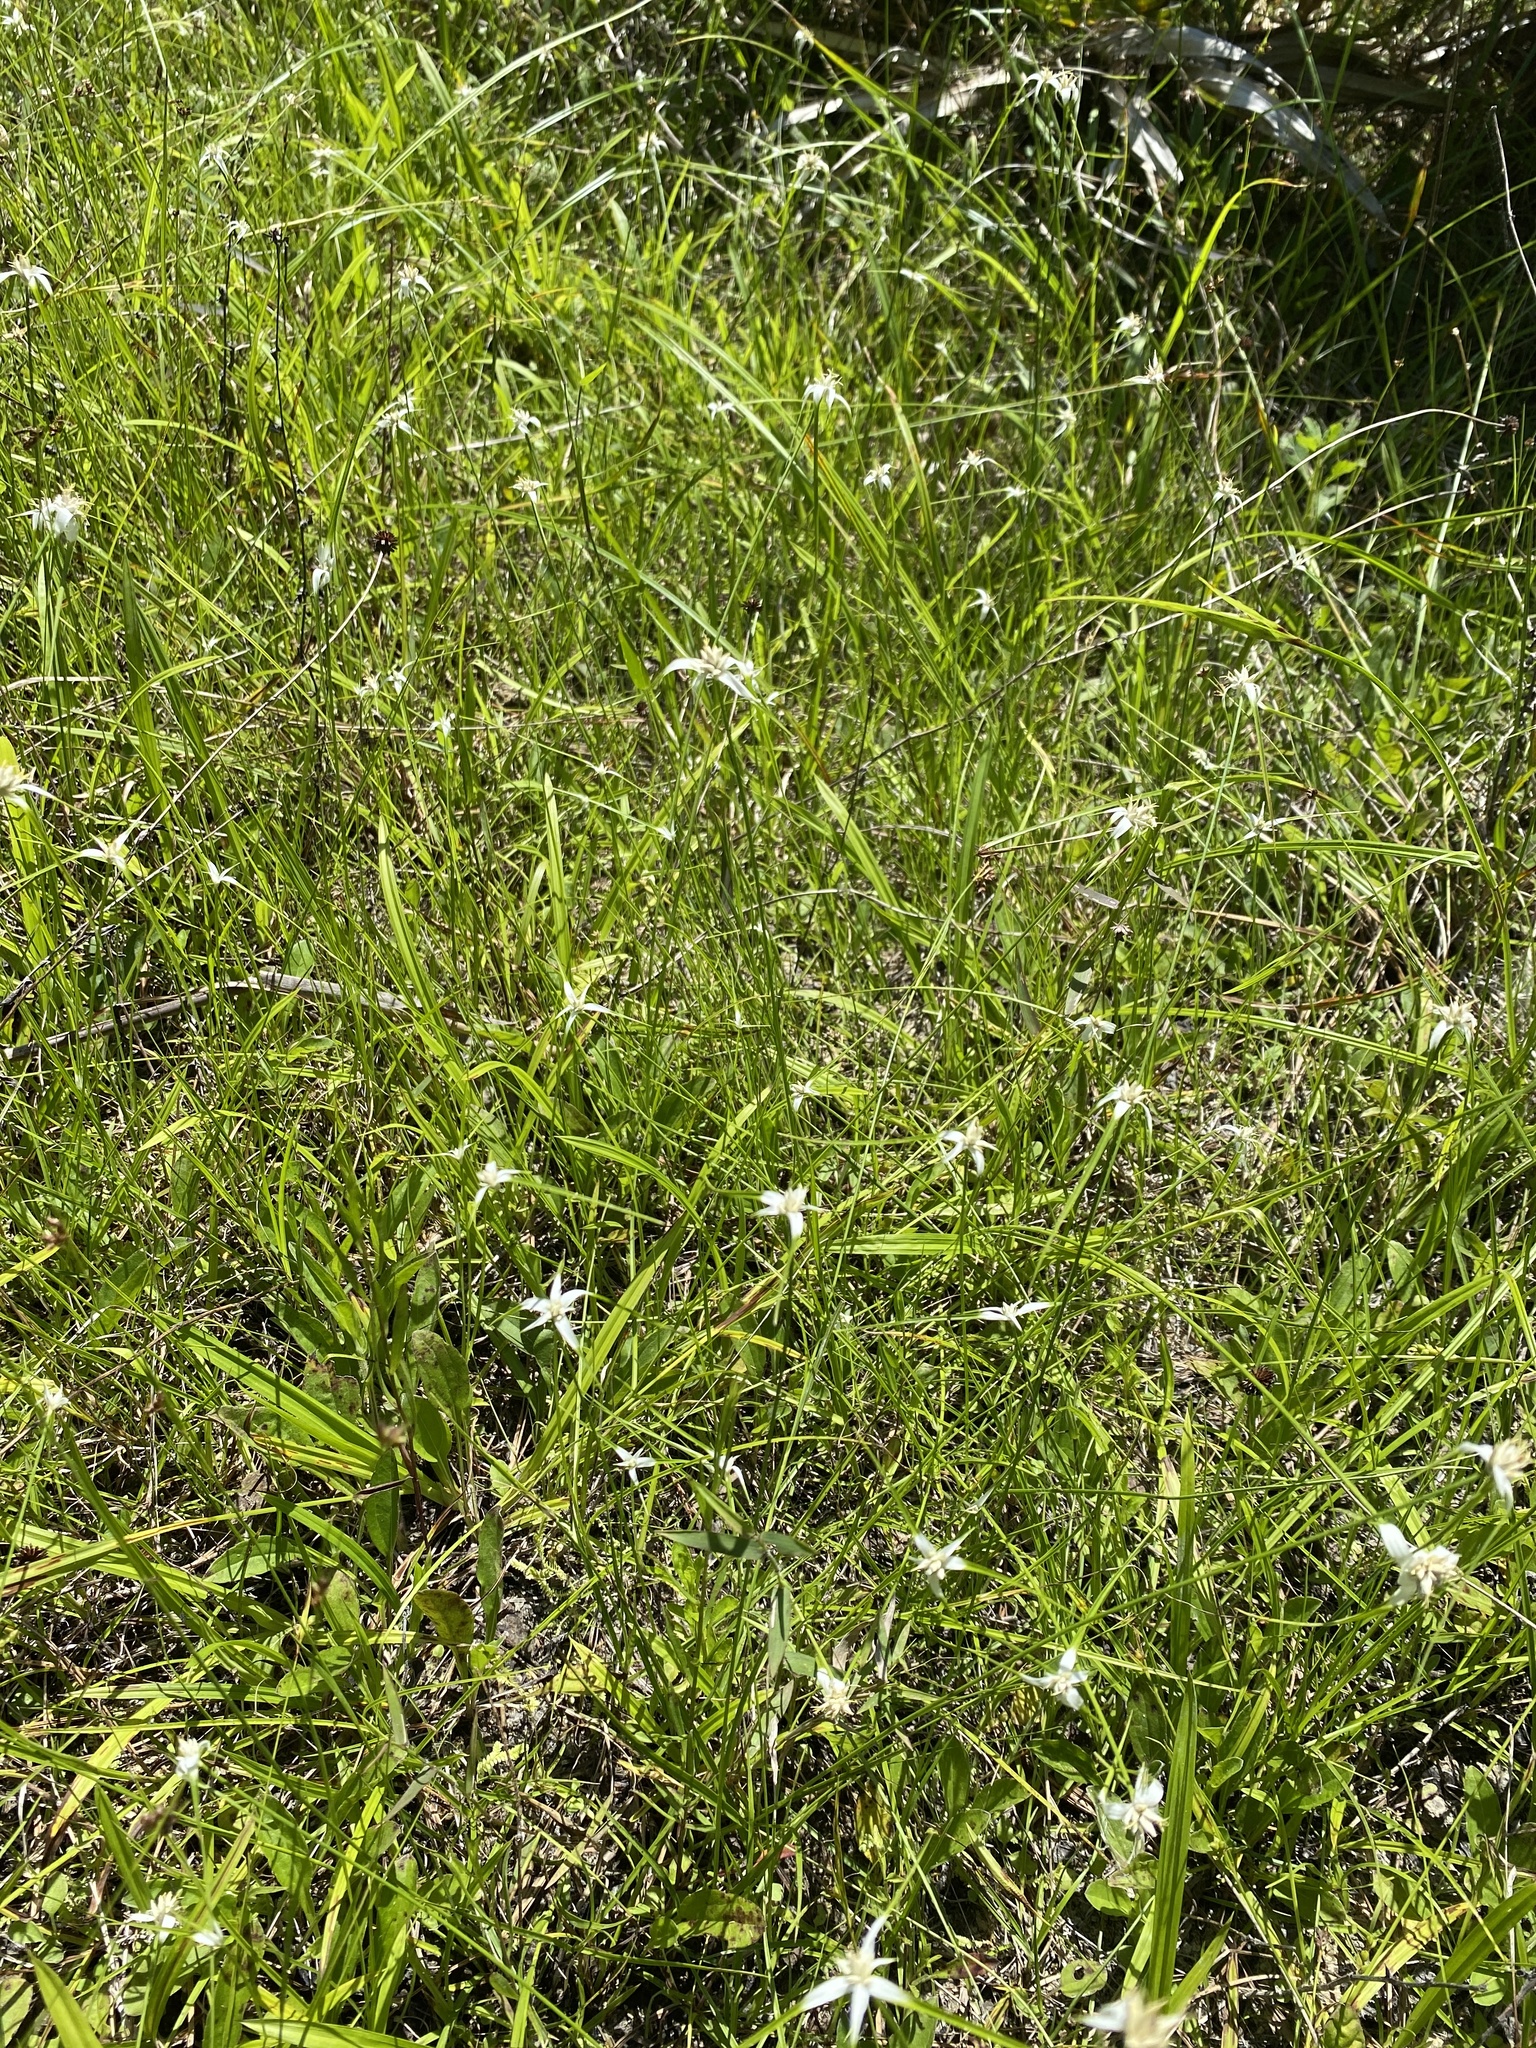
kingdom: Plantae
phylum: Tracheophyta
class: Liliopsida
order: Poales
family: Cyperaceae
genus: Rhynchospora
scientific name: Rhynchospora colorata
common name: Star sedge
